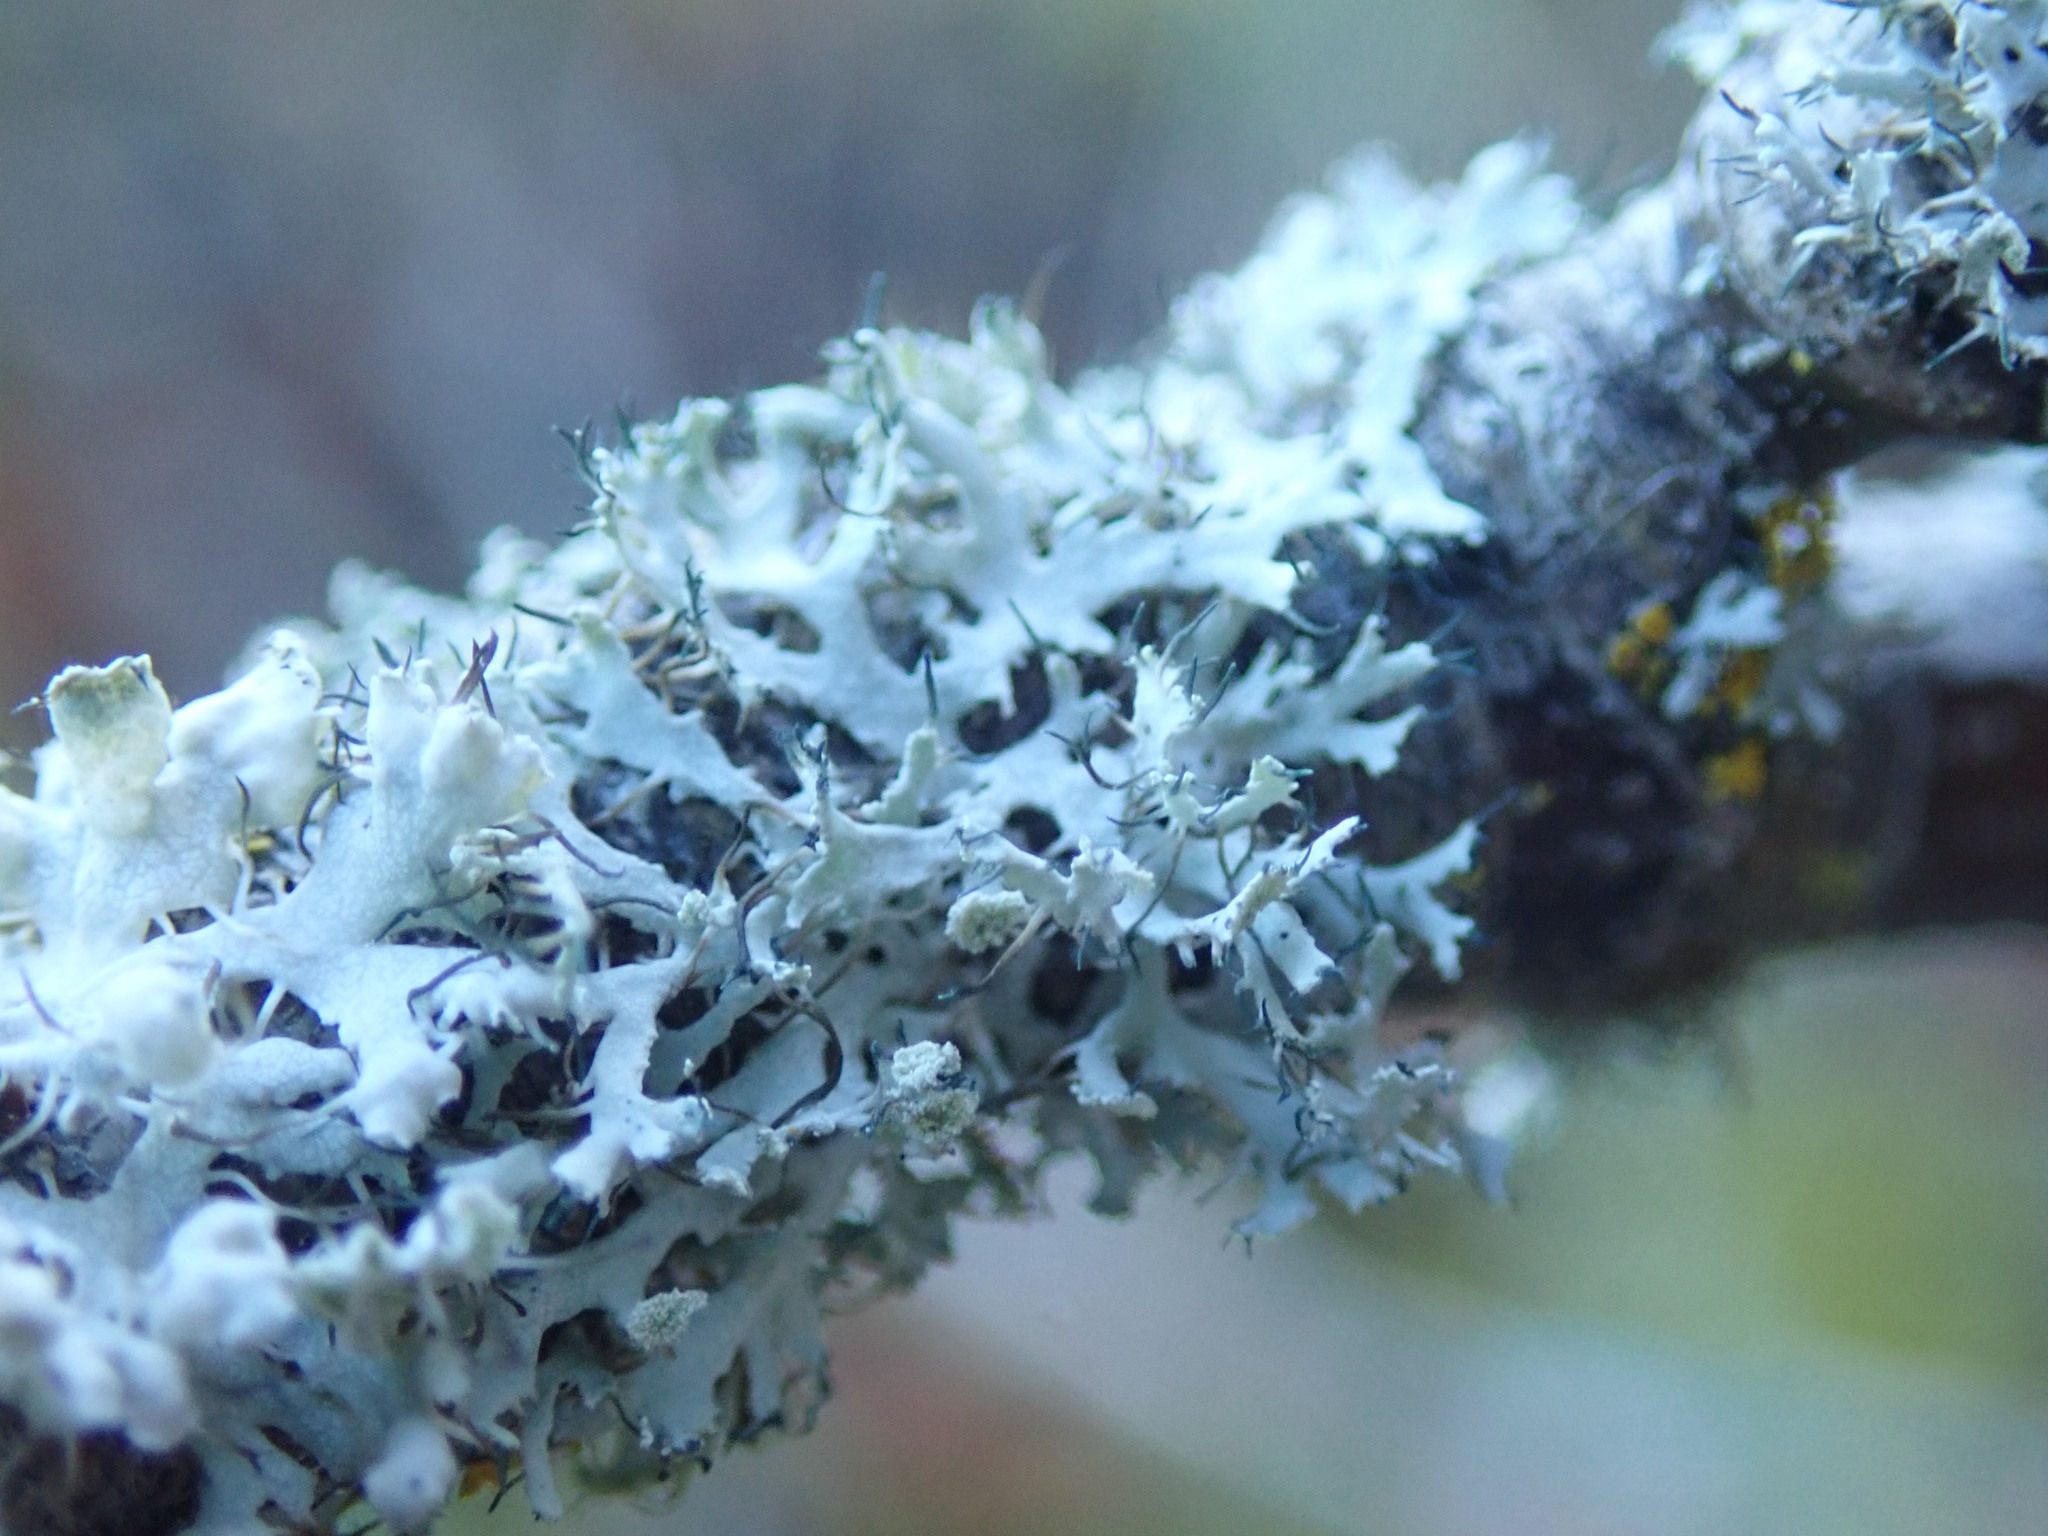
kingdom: Fungi
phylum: Ascomycota
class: Lecanoromycetes
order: Caliciales
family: Physciaceae
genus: Physcia
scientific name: Physcia tenella
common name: Fringed rosette lichen
